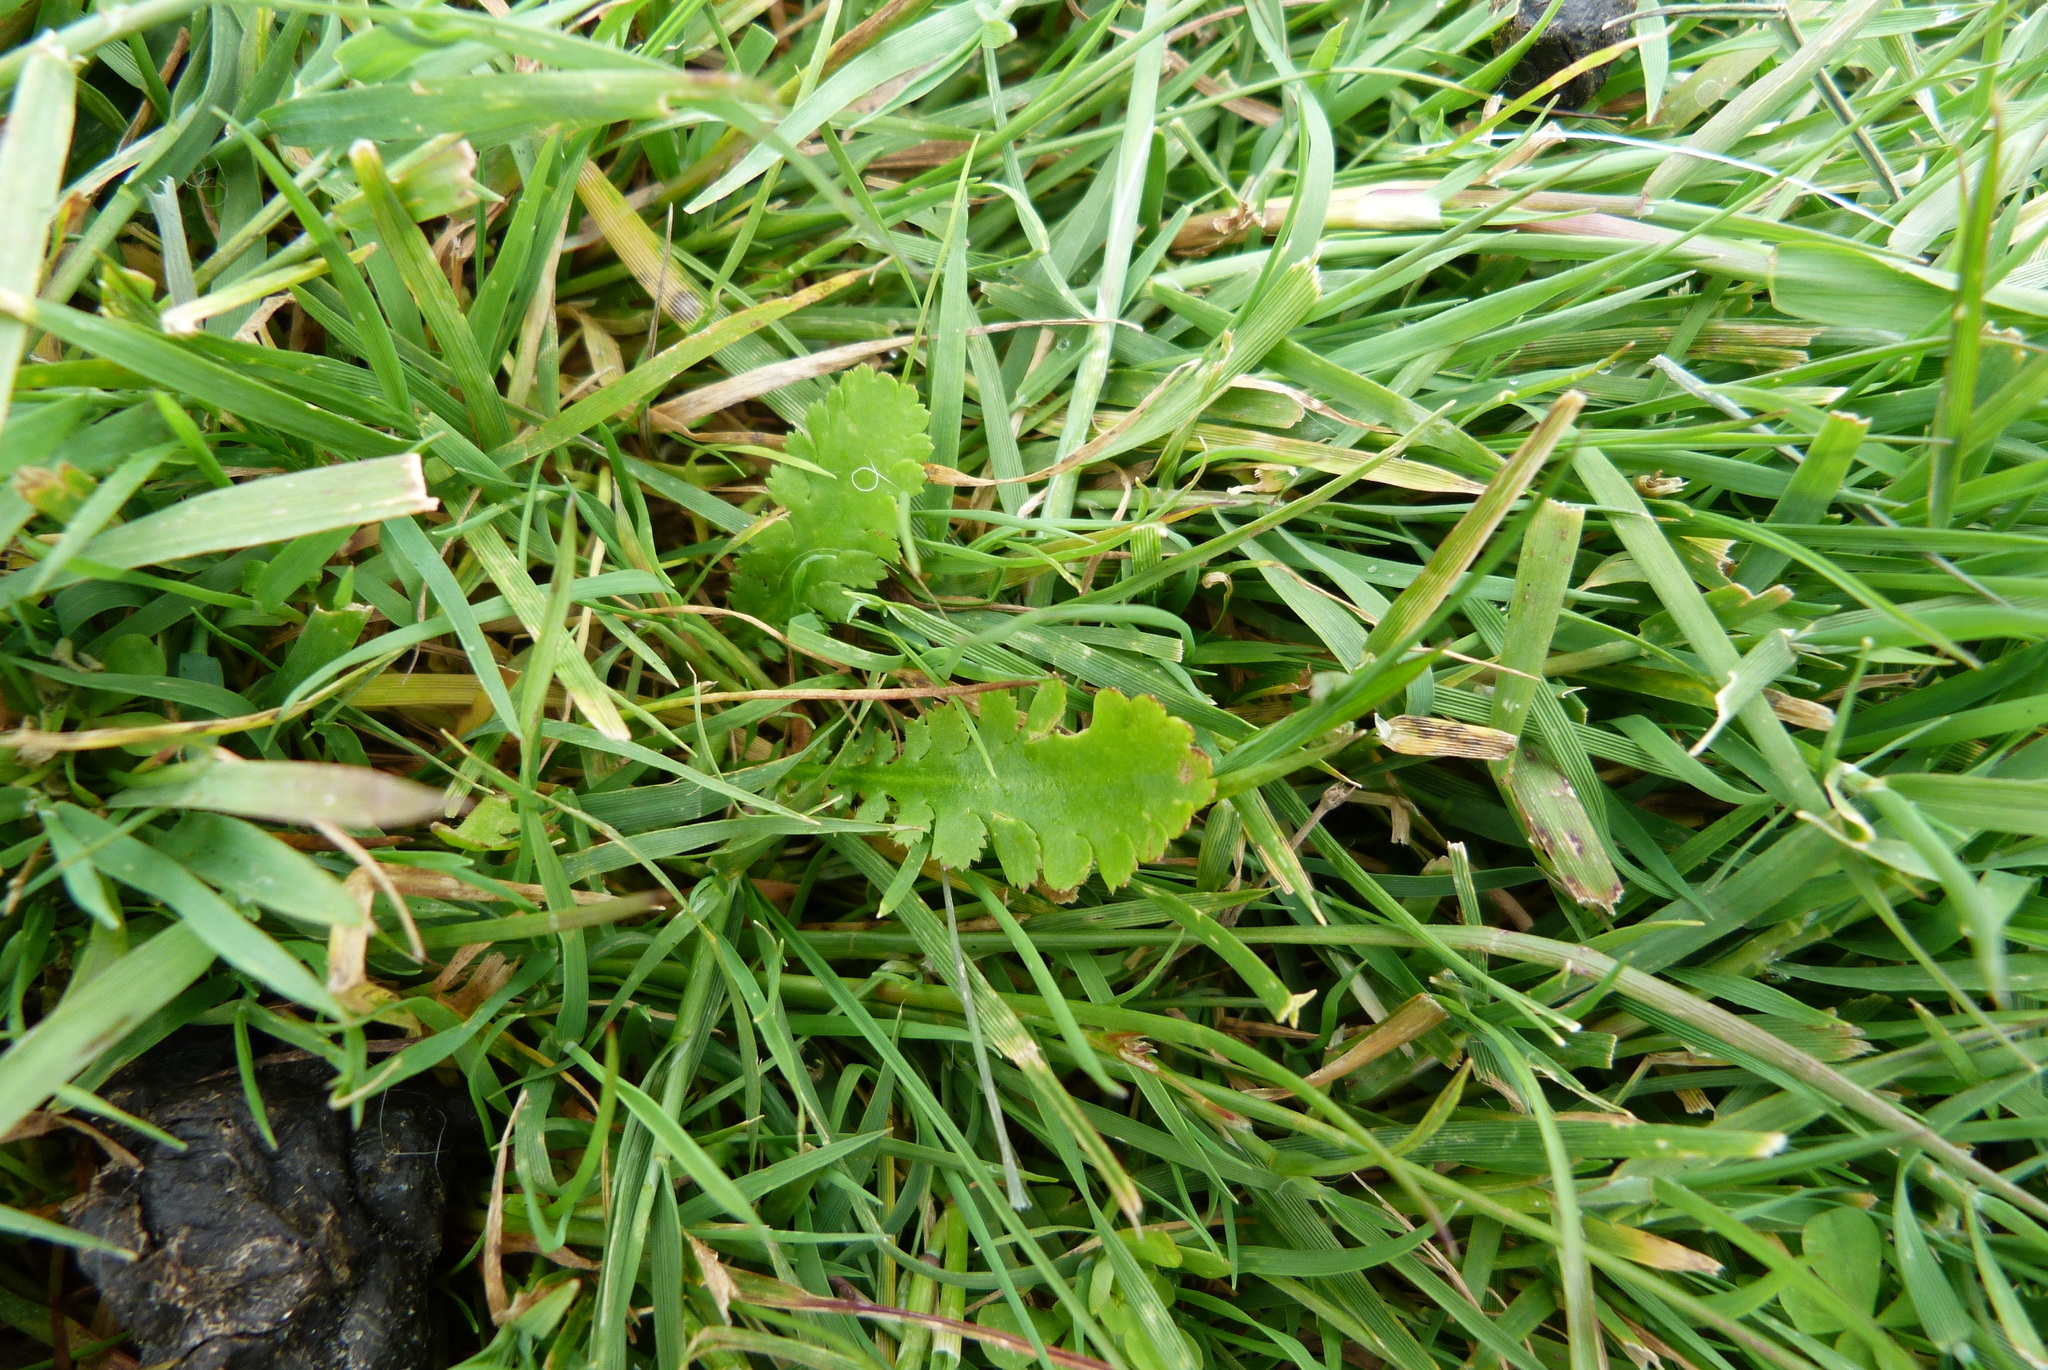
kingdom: Plantae
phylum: Tracheophyta
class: Magnoliopsida
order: Asterales
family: Asteraceae
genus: Leptinella
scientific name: Leptinella dioica
